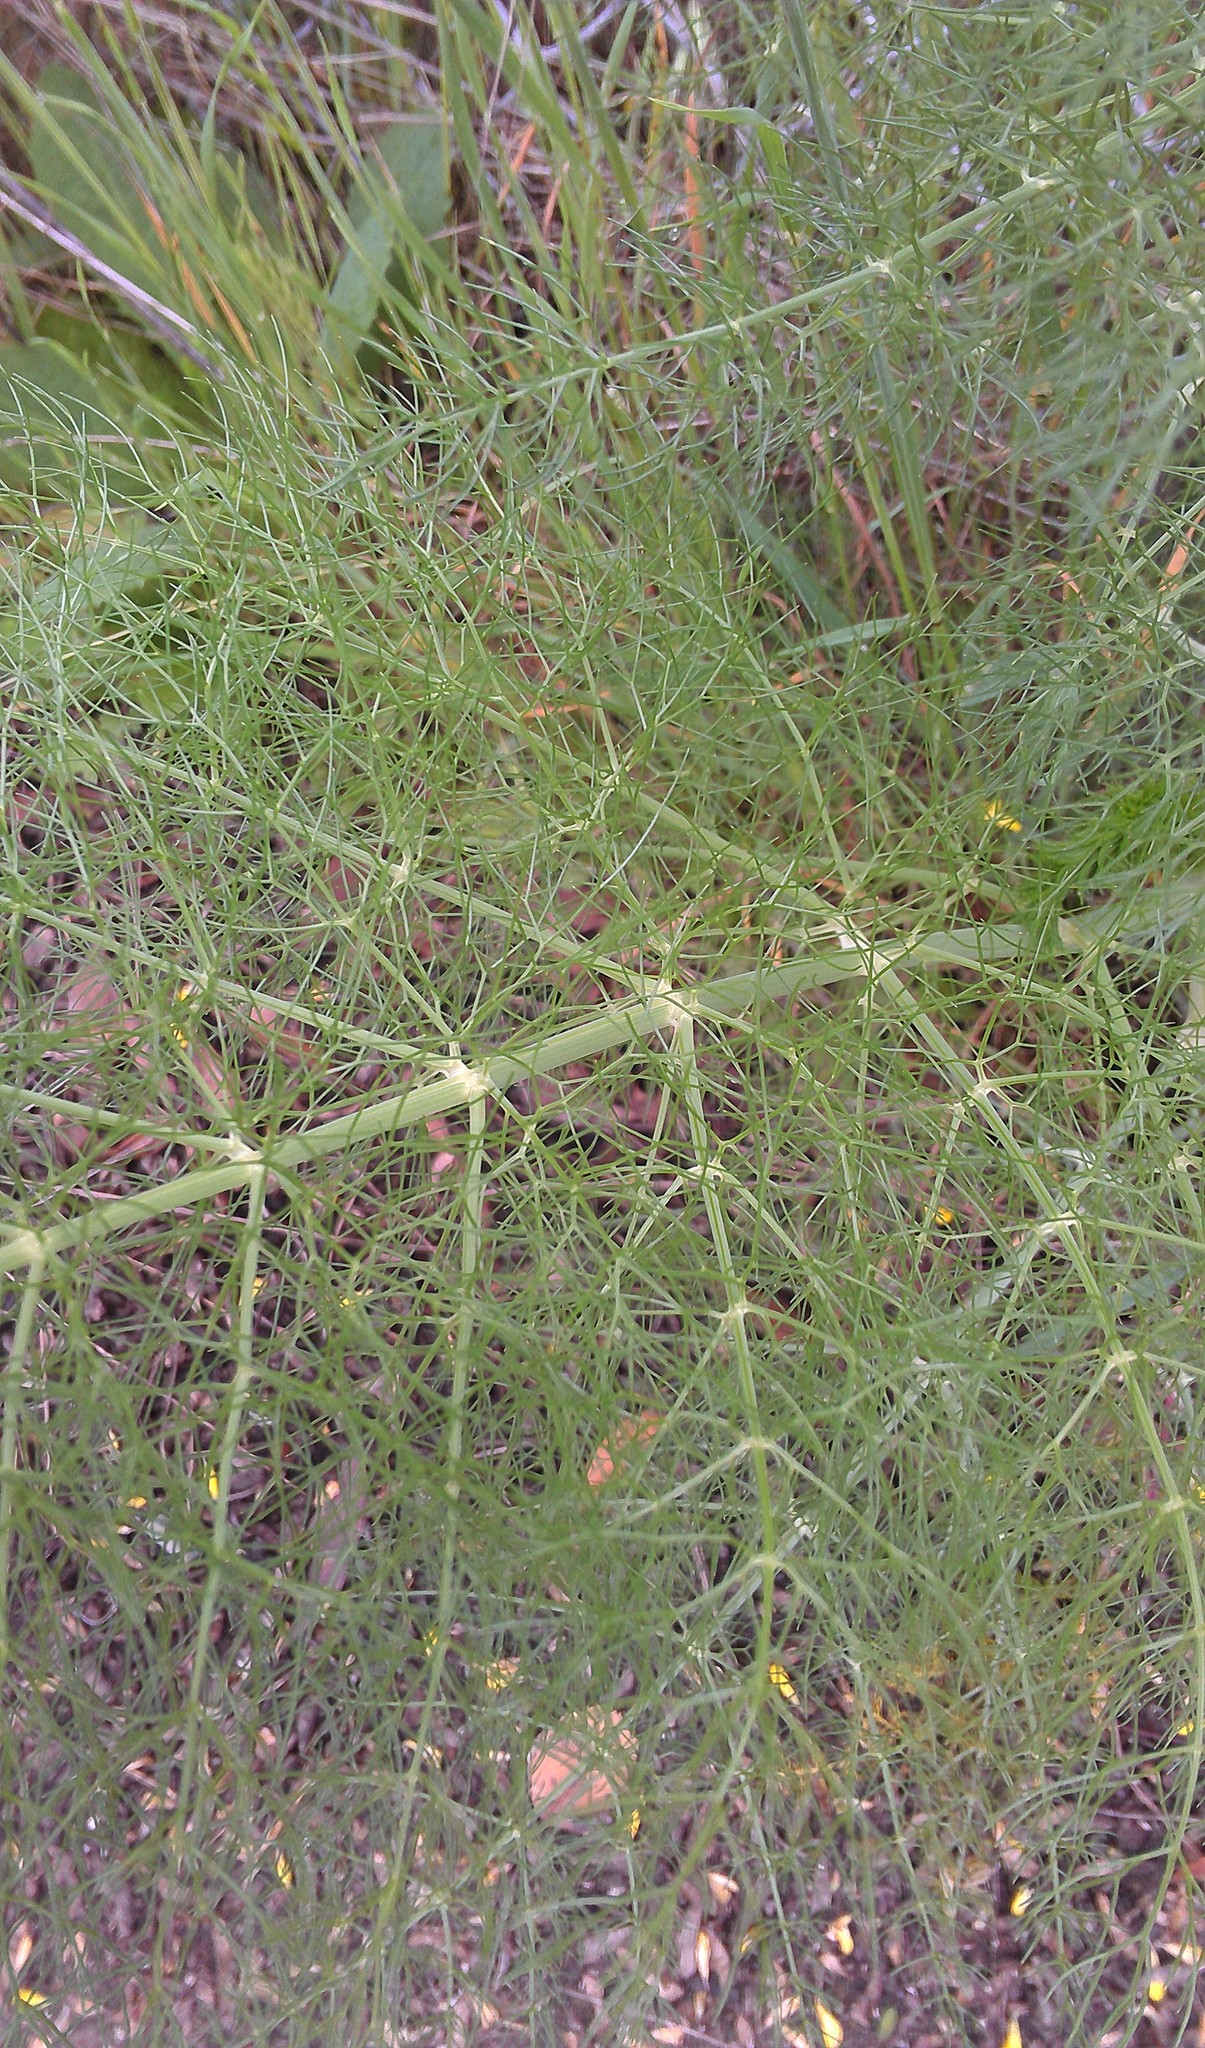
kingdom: Plantae
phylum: Tracheophyta
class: Magnoliopsida
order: Apiales
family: Apiaceae
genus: Foeniculum
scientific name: Foeniculum vulgare
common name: Fennel
